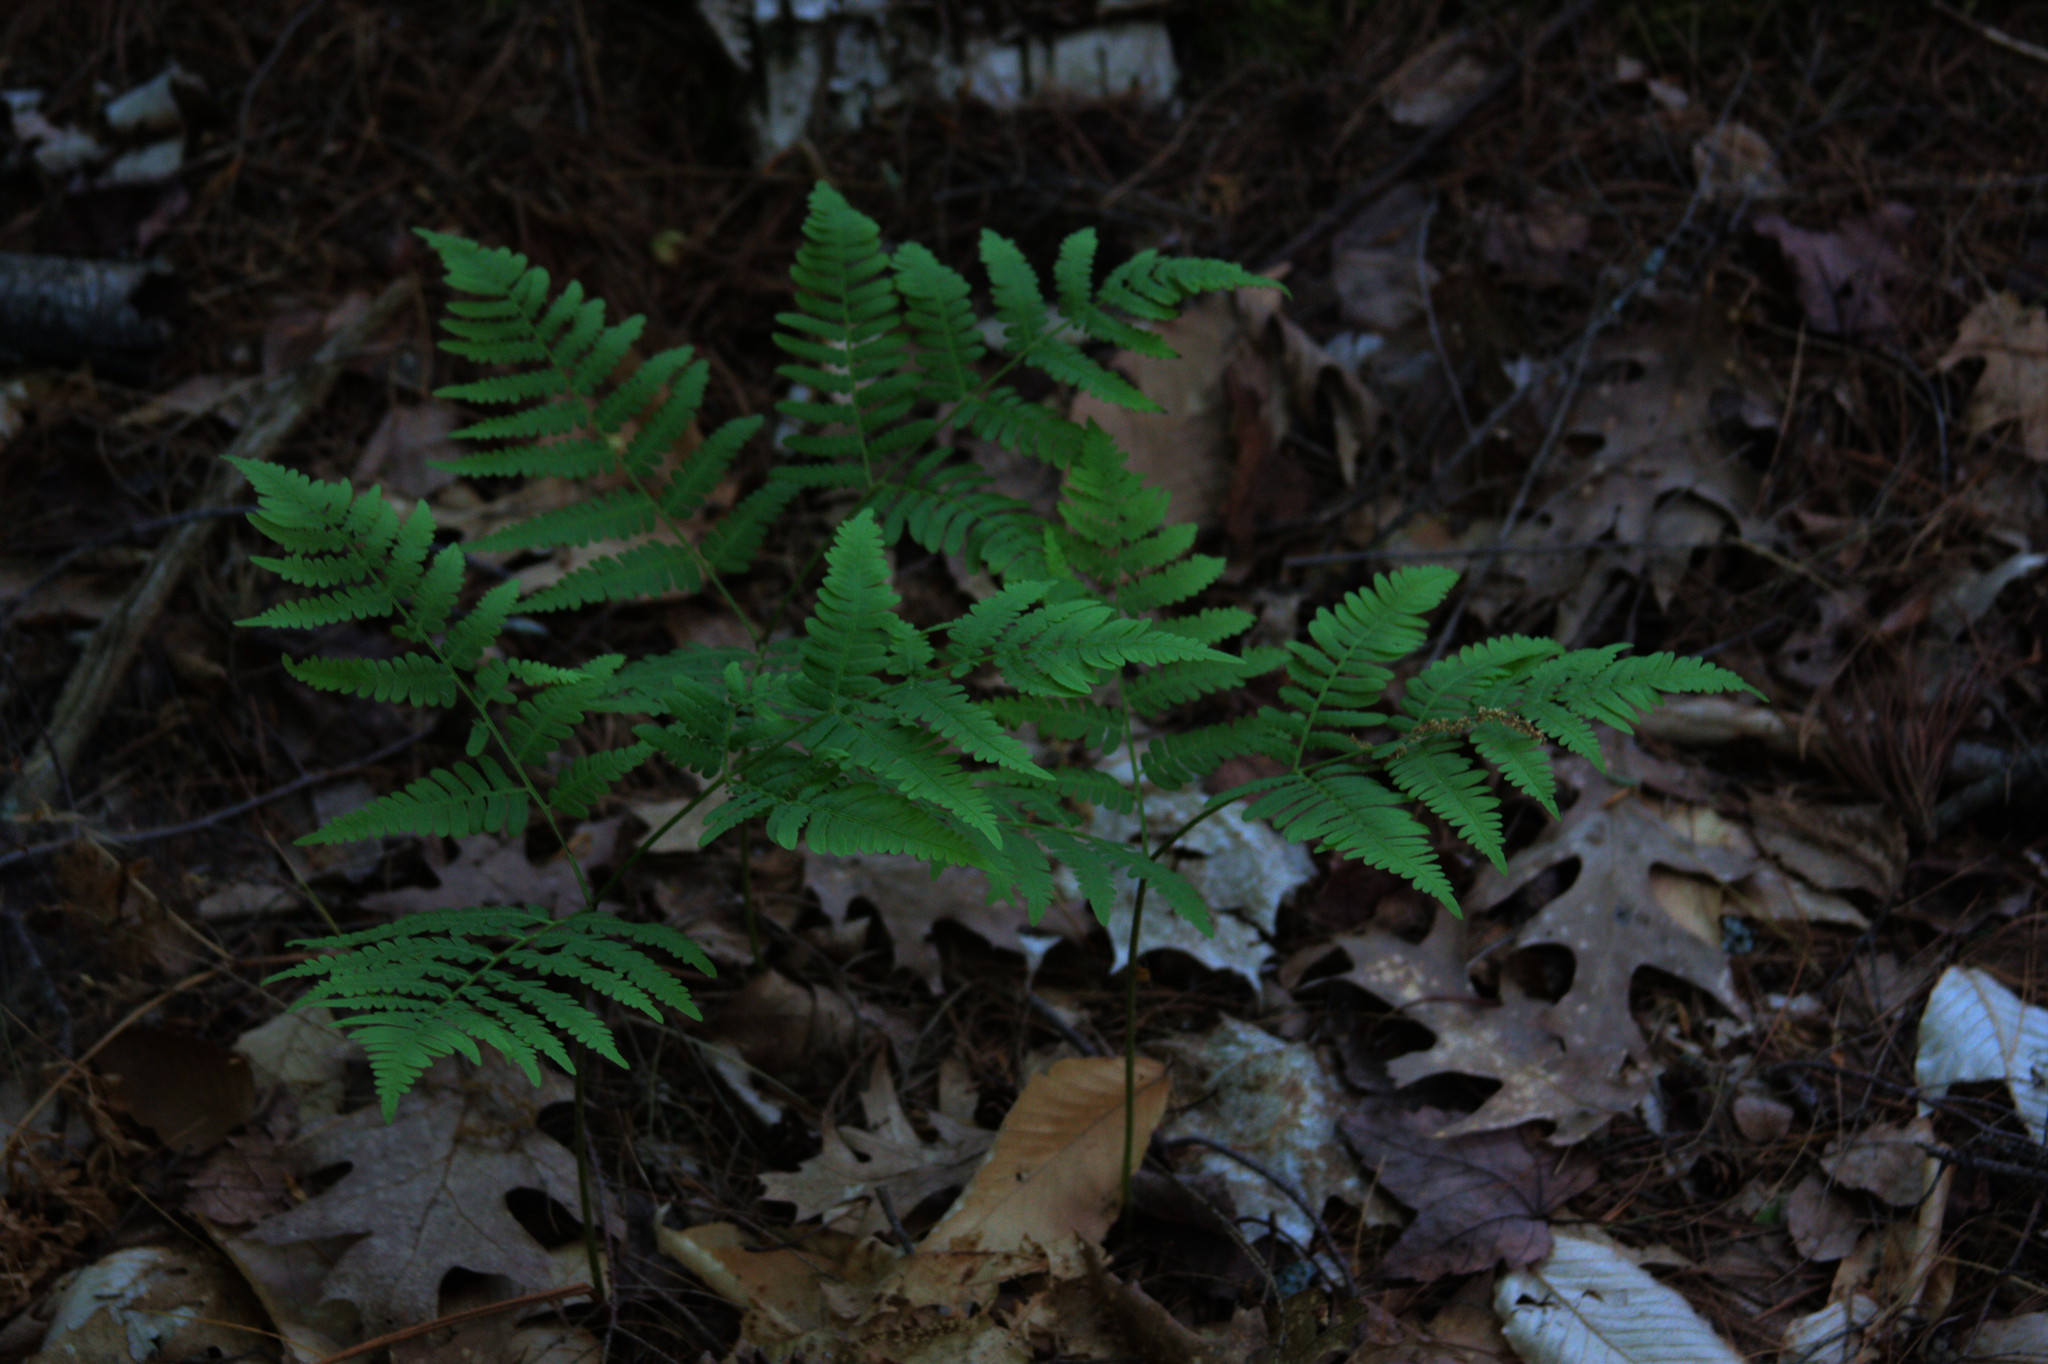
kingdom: Plantae
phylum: Tracheophyta
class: Polypodiopsida
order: Polypodiales
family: Dennstaedtiaceae
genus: Pteridium
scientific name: Pteridium aquilinum
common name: Bracken
